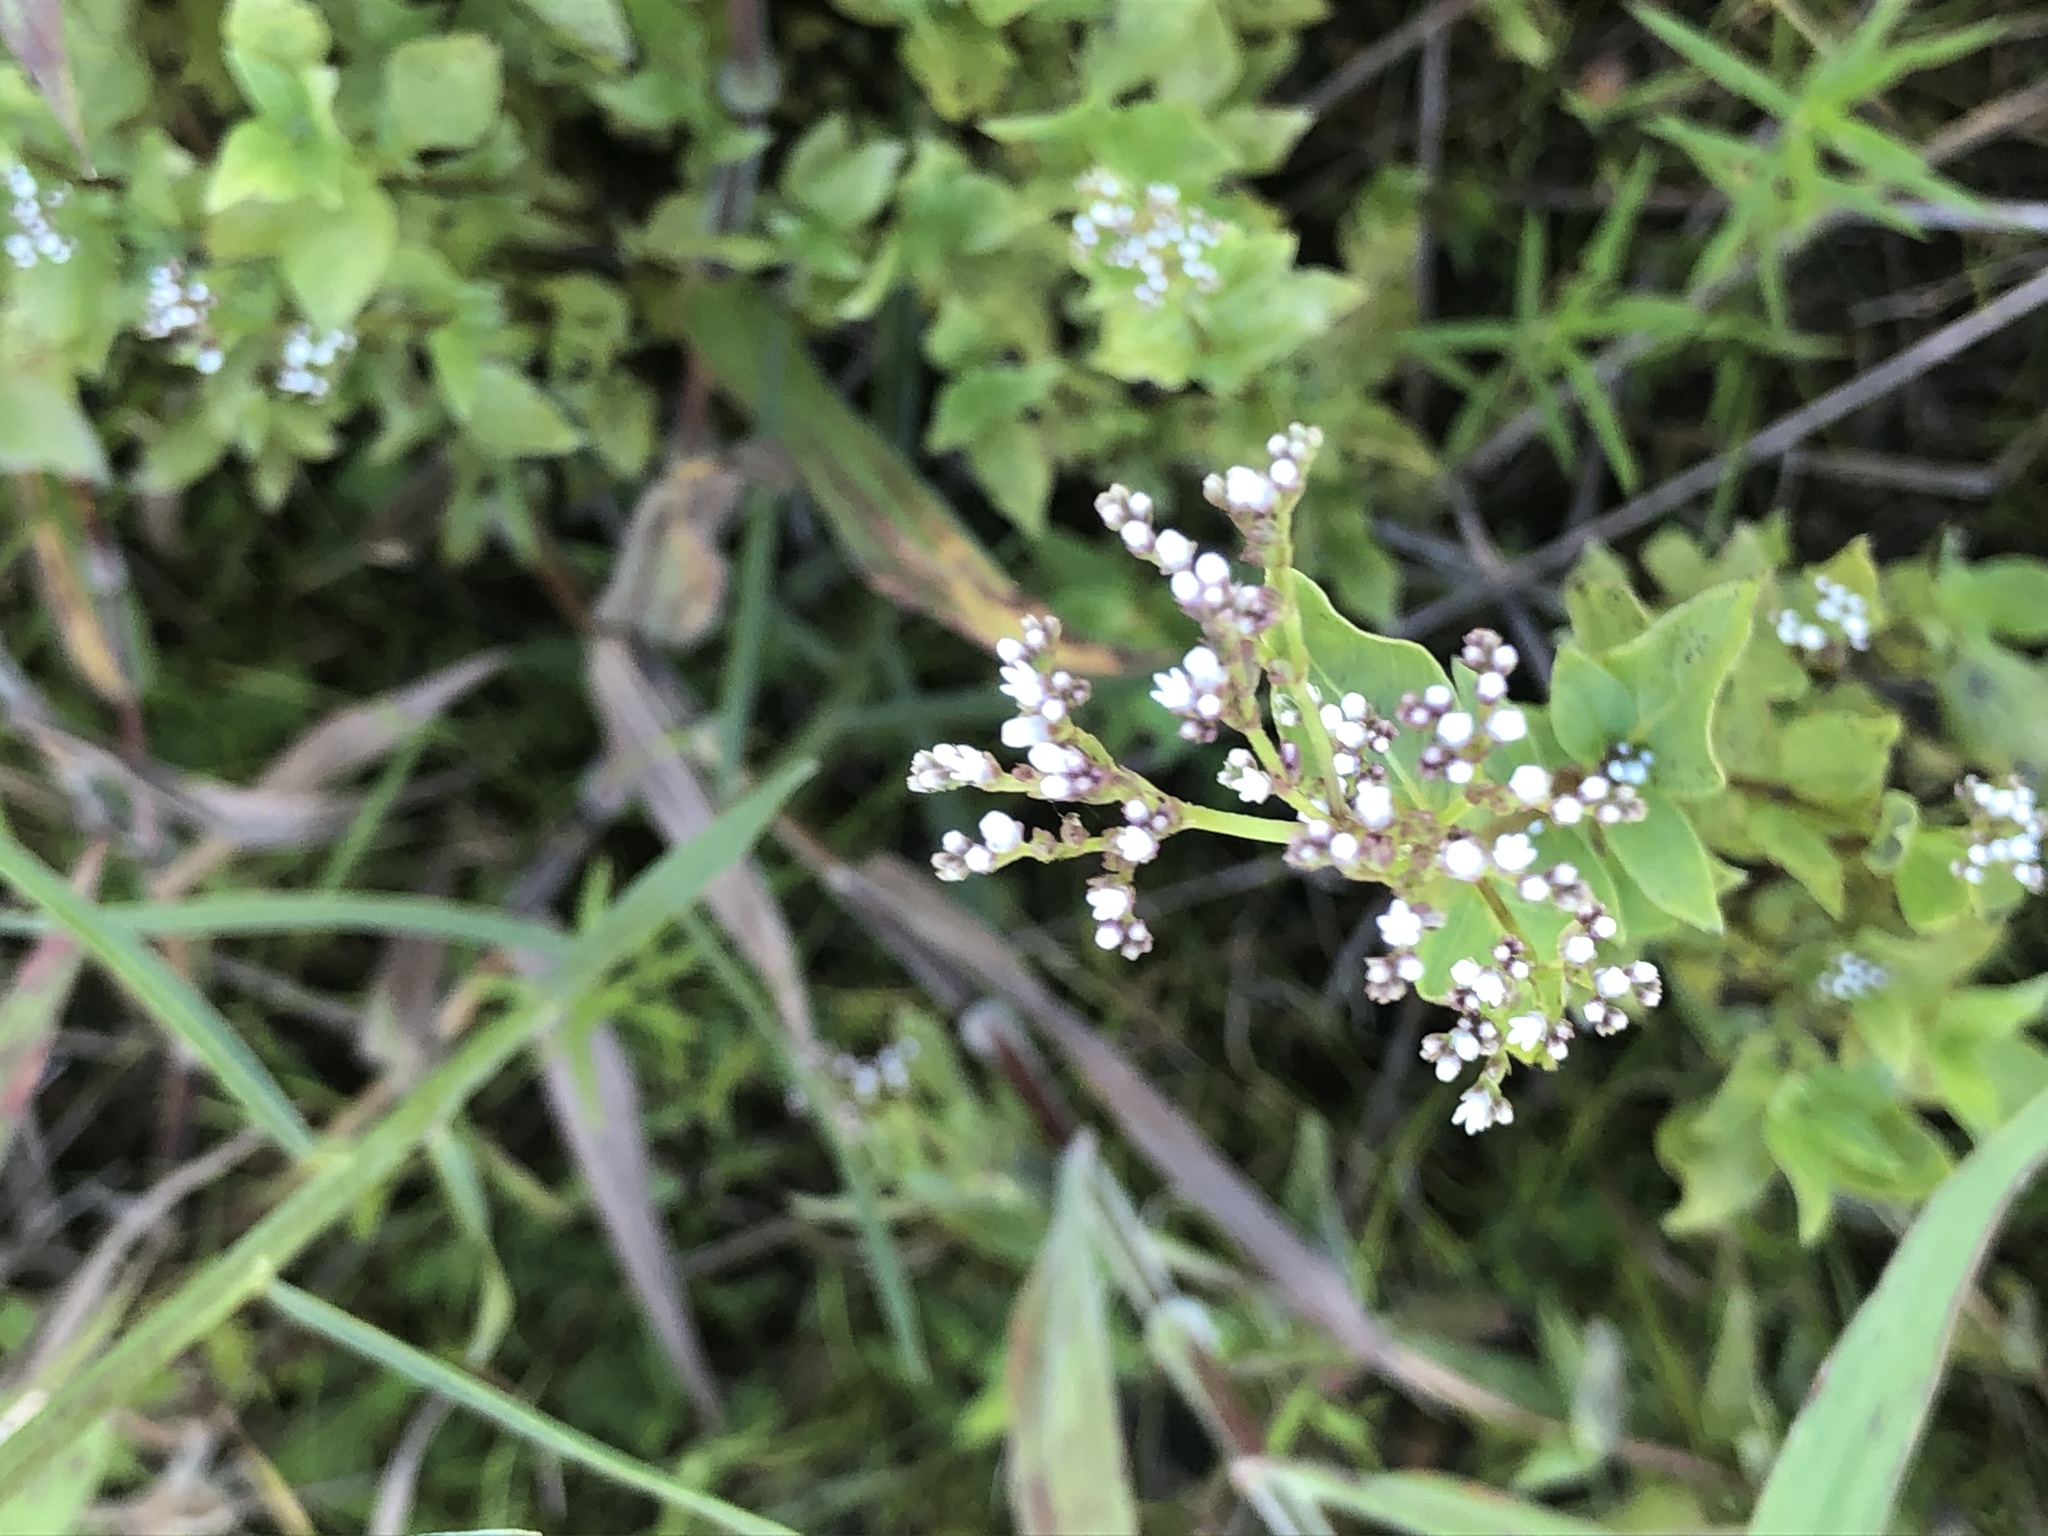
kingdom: Plantae
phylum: Tracheophyta
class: Magnoliopsida
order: Gentianales
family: Loganiaceae
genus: Mitreola
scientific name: Mitreola petiolata
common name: Lax hornpod
